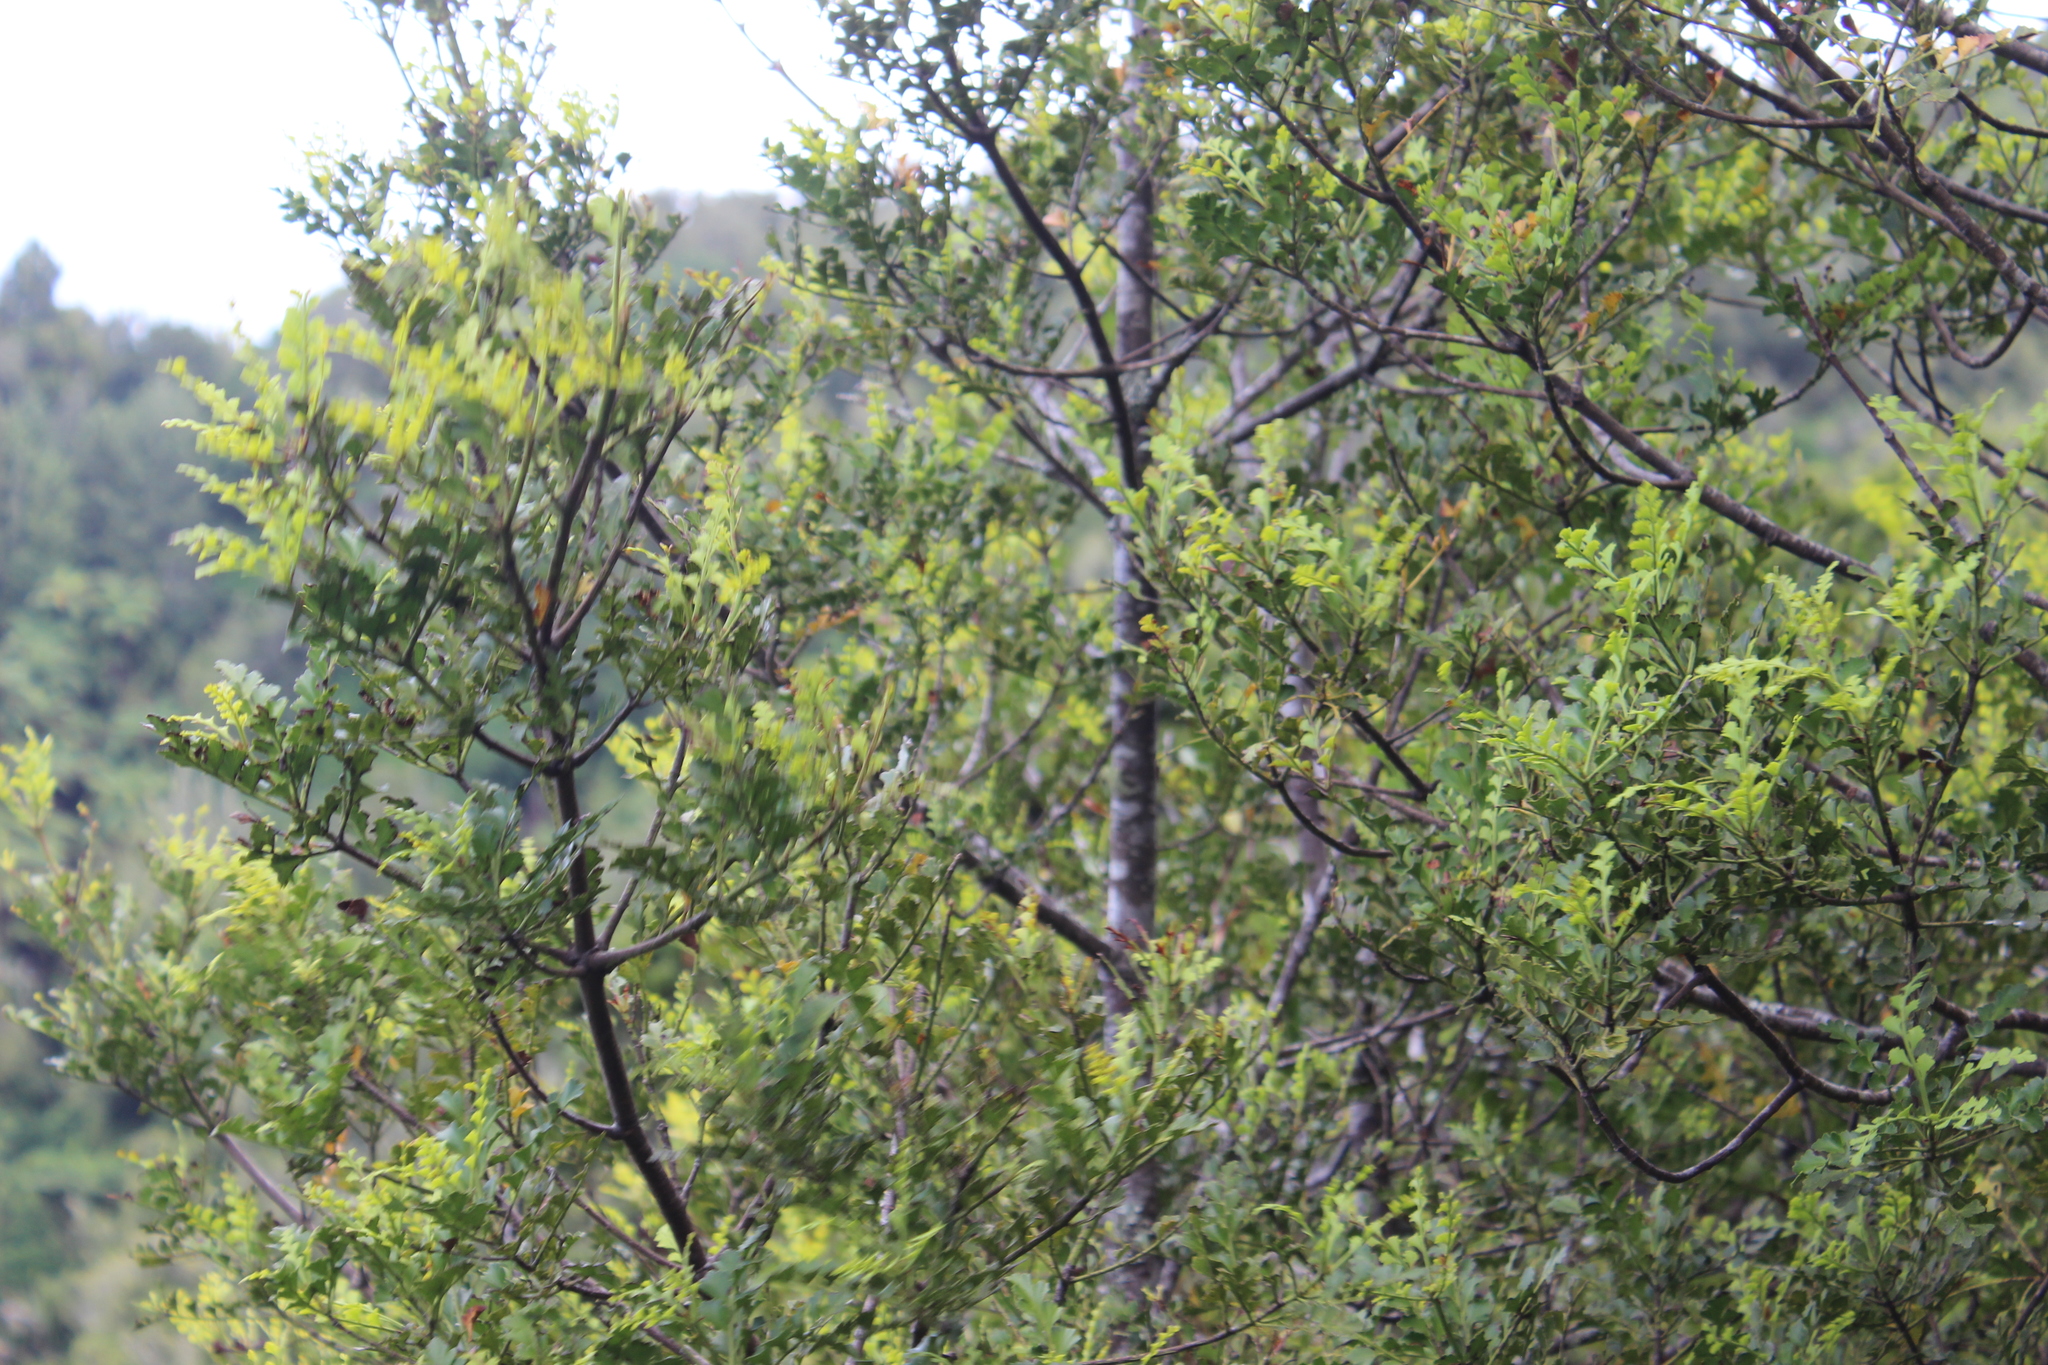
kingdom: Plantae
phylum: Tracheophyta
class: Pinopsida
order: Pinales
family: Phyllocladaceae
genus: Phyllocladus
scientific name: Phyllocladus trichomanoides
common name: Celery pine
